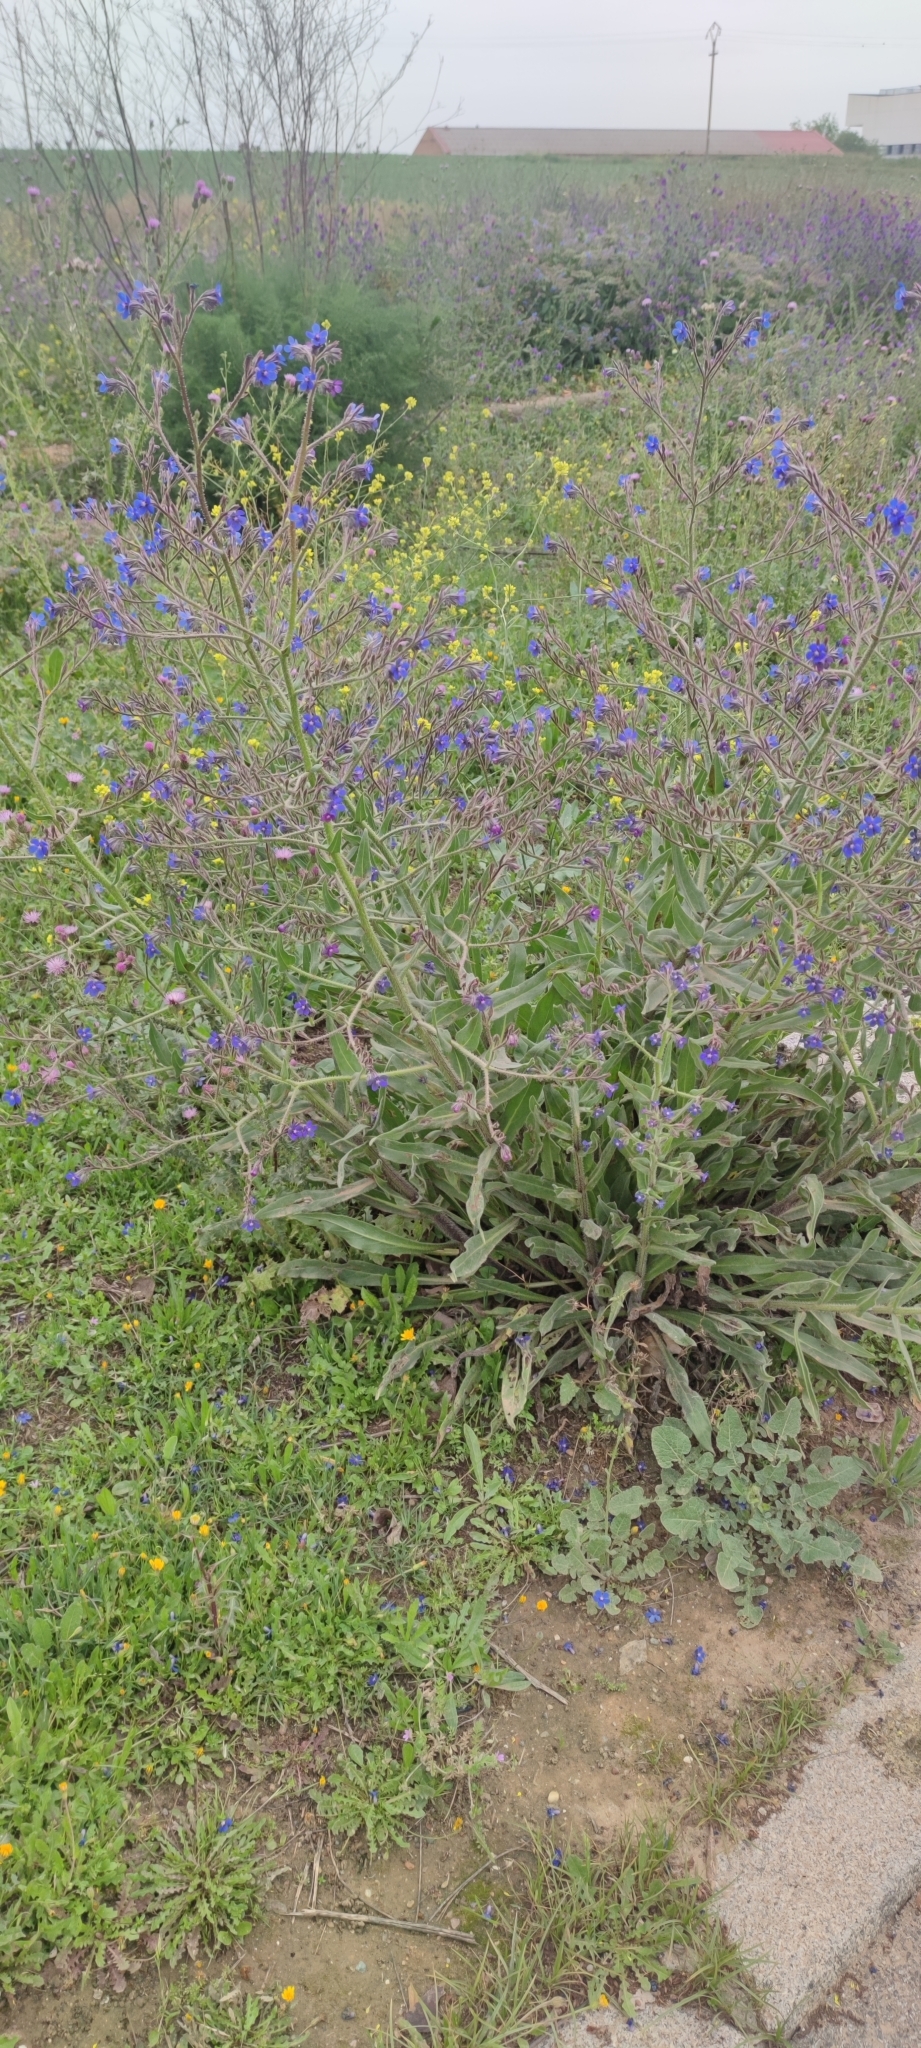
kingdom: Plantae
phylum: Tracheophyta
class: Magnoliopsida
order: Boraginales
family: Boraginaceae
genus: Anchusa
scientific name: Anchusa azurea
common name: Garden anchusa
